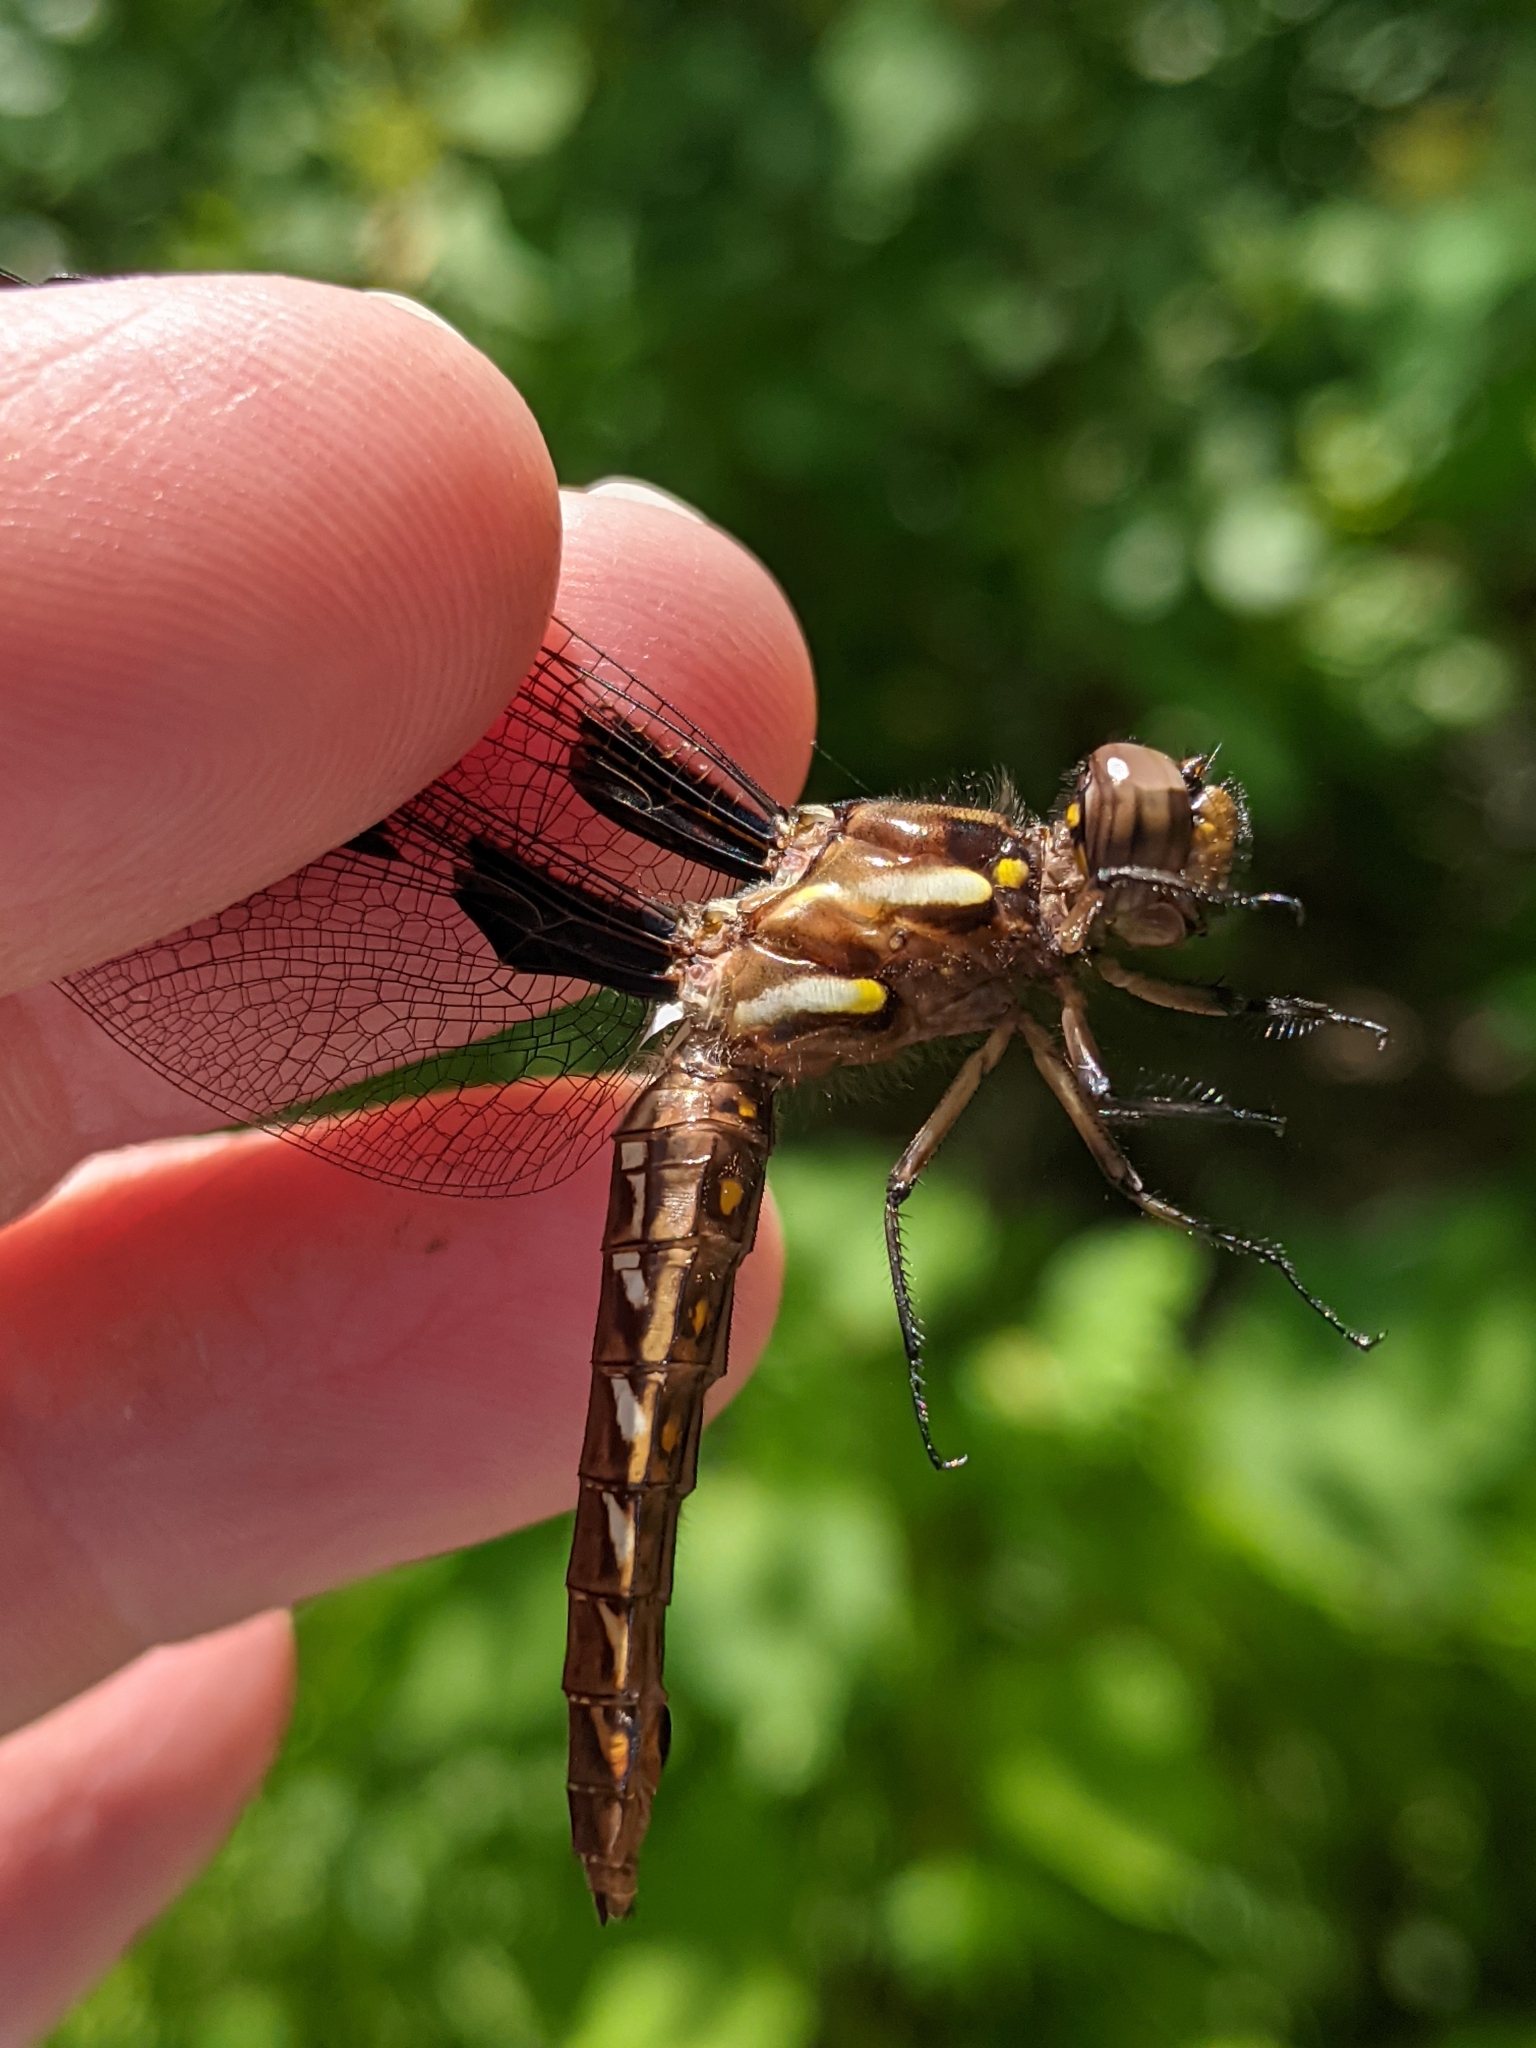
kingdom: Animalia
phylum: Arthropoda
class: Insecta
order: Odonata
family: Libellulidae
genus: Plathemis
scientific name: Plathemis lydia
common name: Common whitetail
